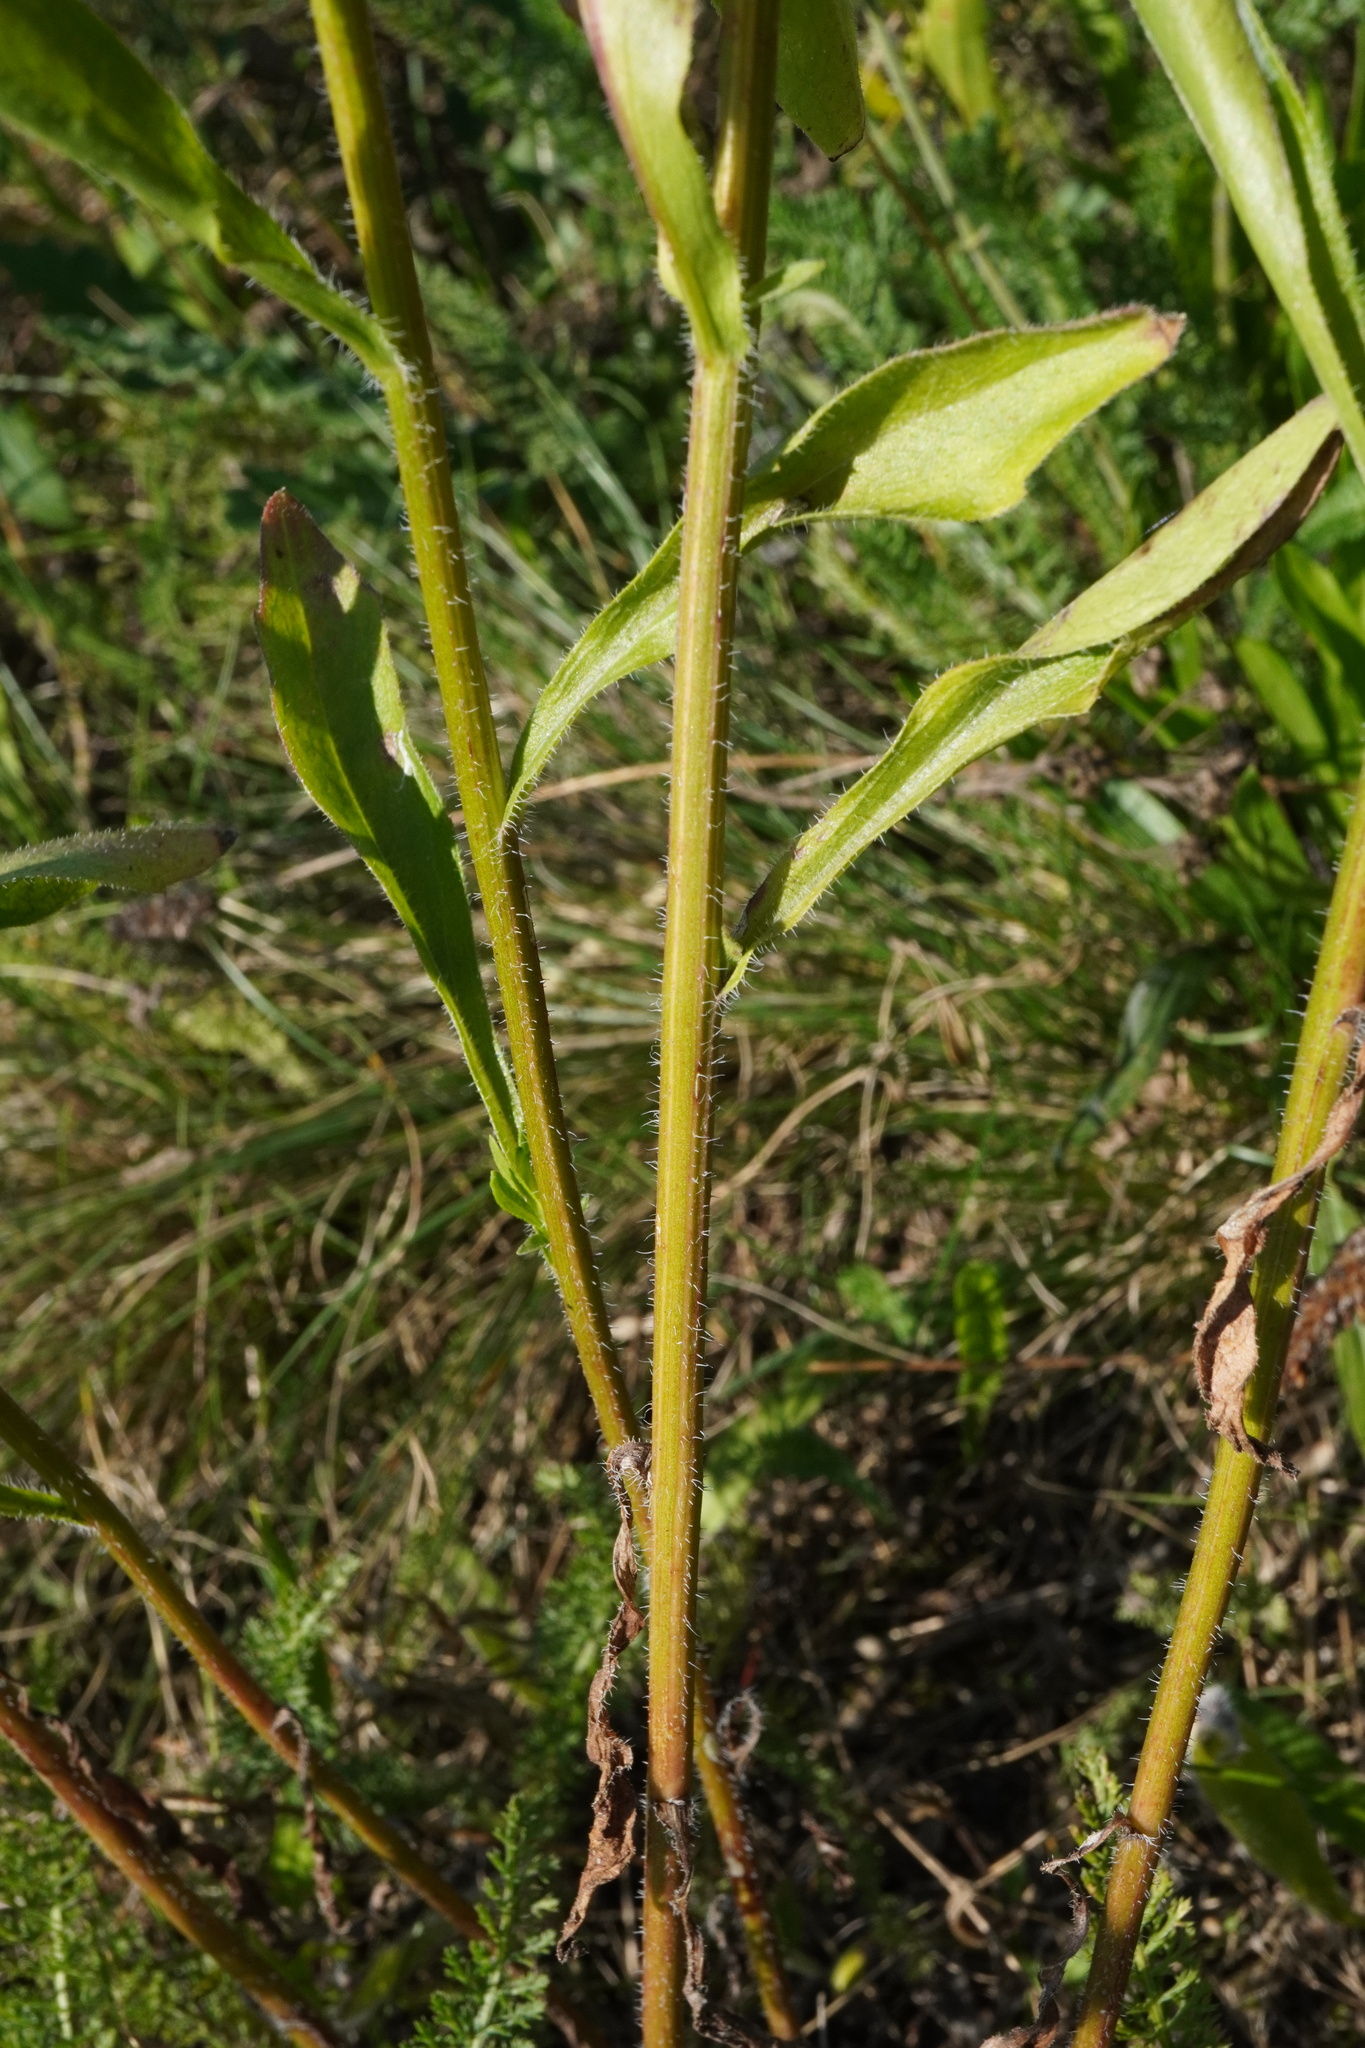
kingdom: Plantae
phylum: Tracheophyta
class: Magnoliopsida
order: Asterales
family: Asteraceae
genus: Erigeron
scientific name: Erigeron annuus
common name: Tall fleabane
